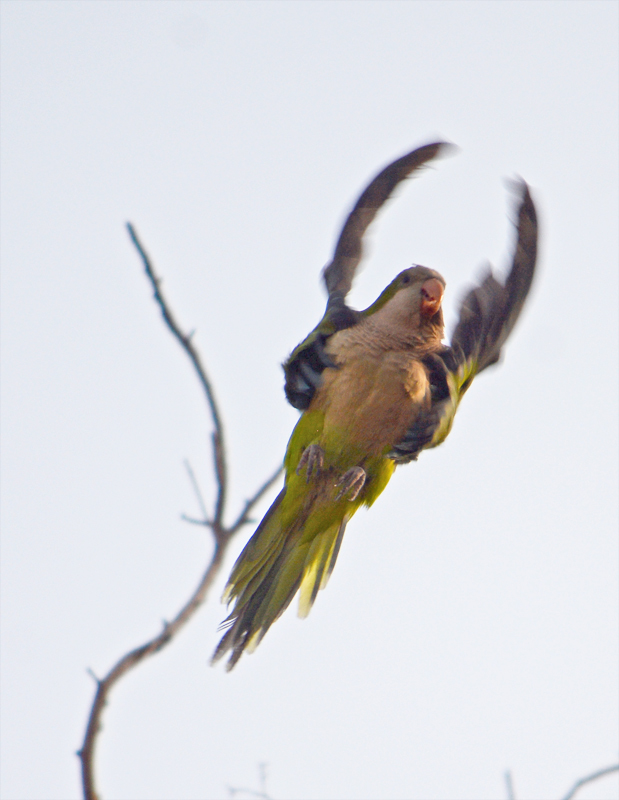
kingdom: Animalia
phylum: Chordata
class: Aves
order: Psittaciformes
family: Psittacidae
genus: Myiopsitta
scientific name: Myiopsitta monachus
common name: Monk parakeet
